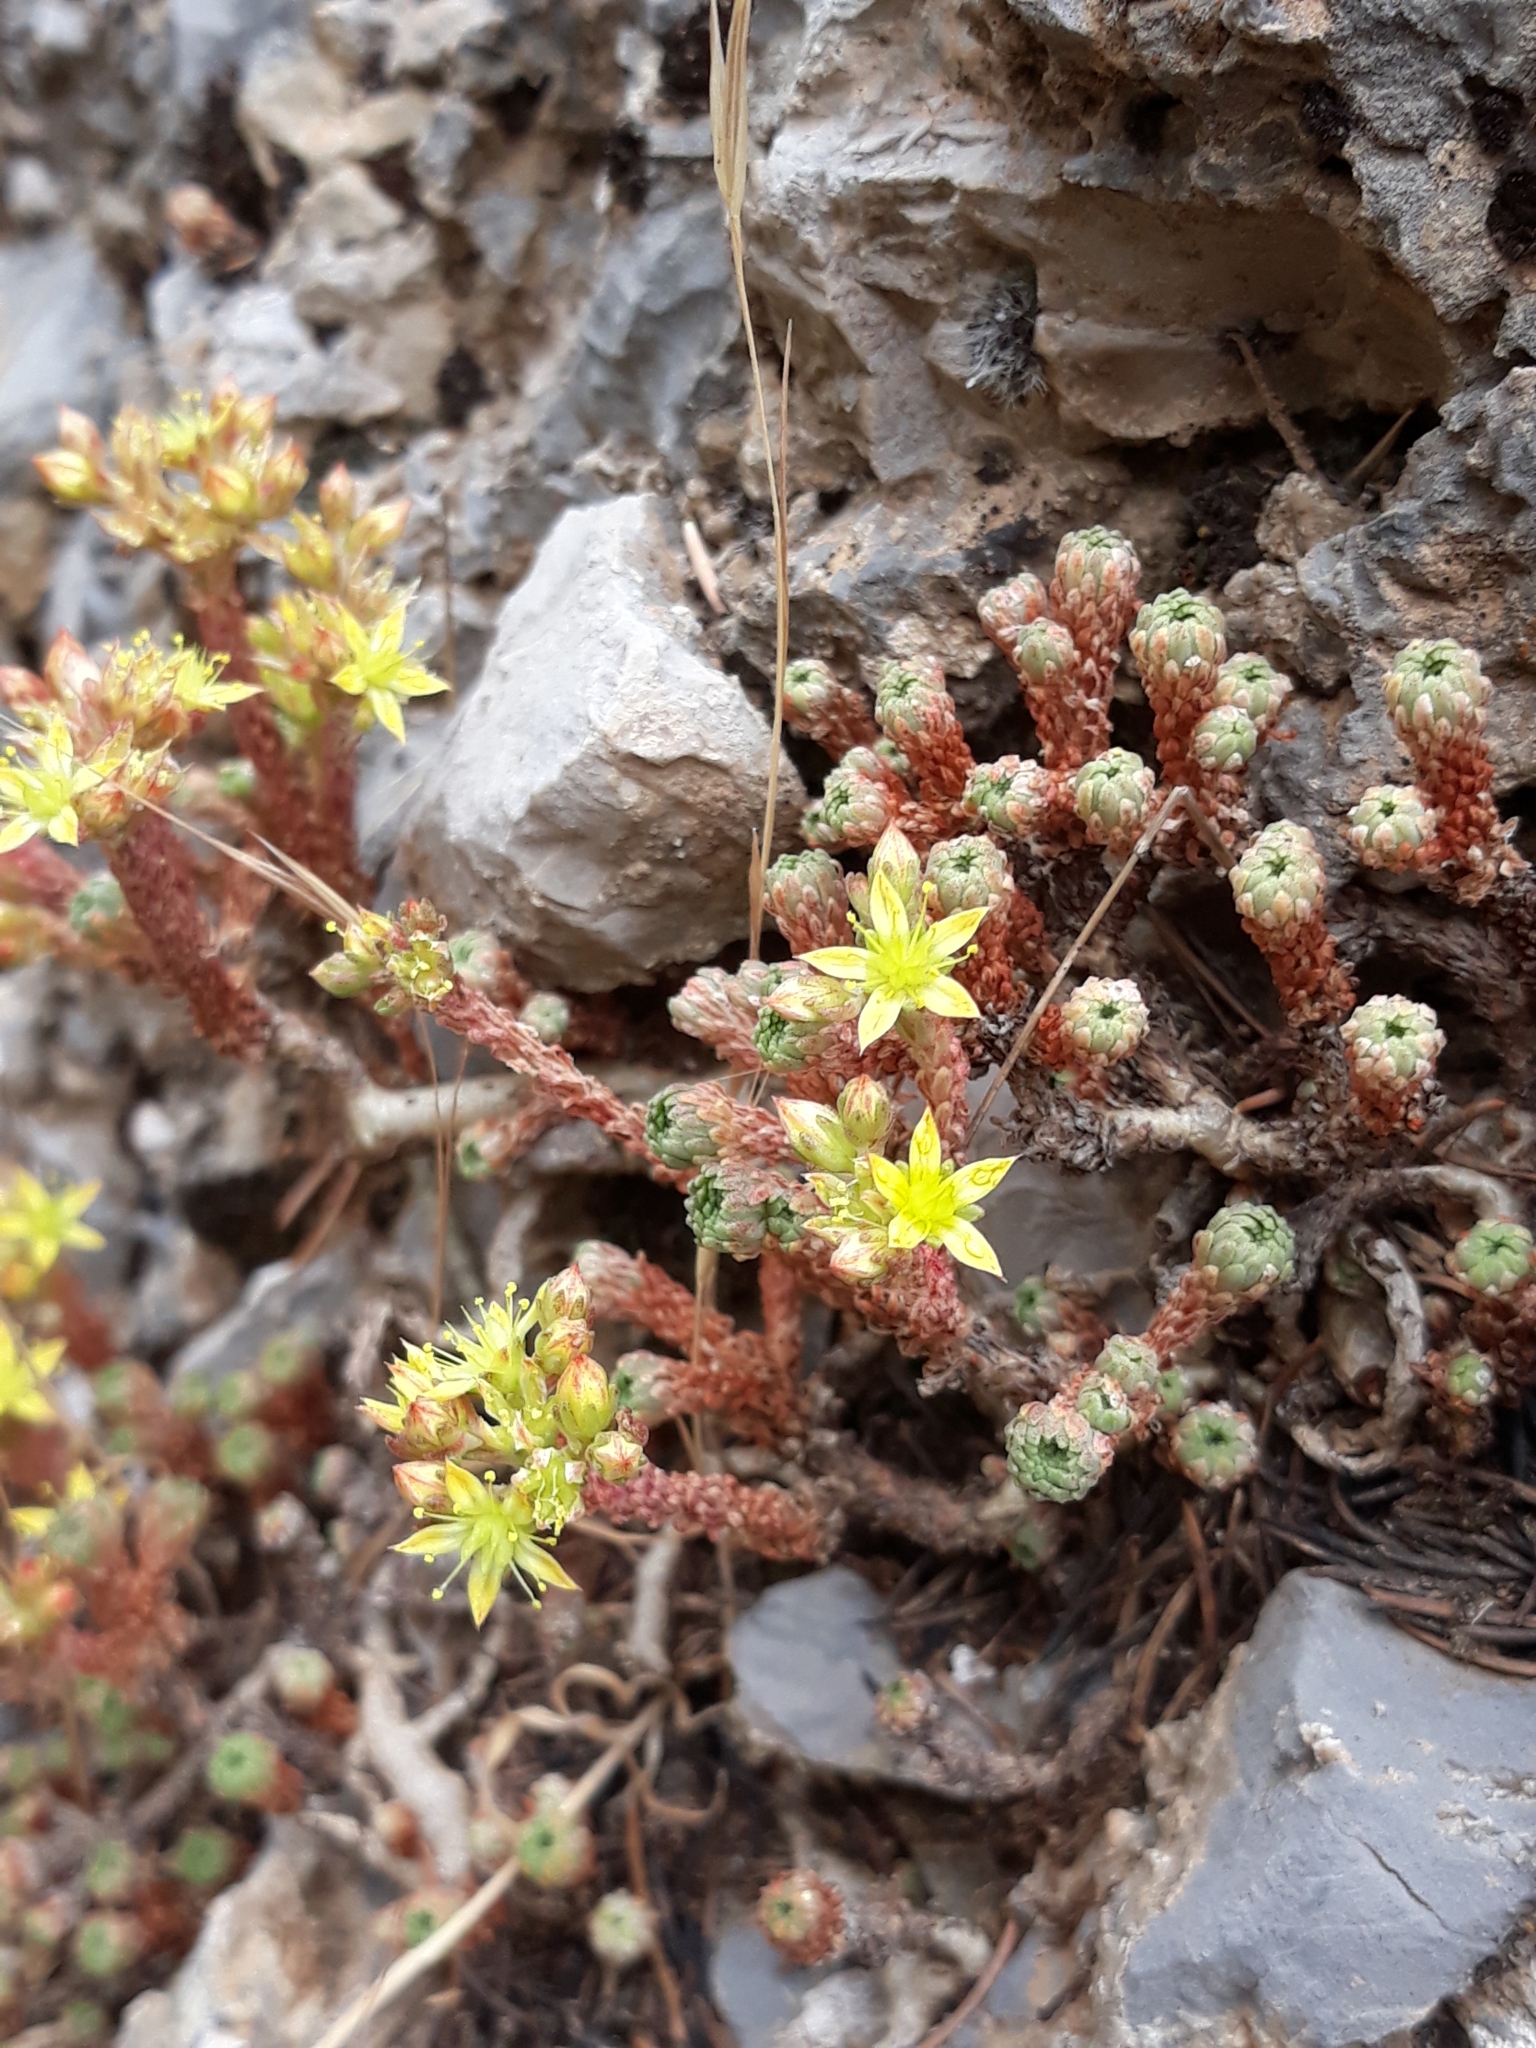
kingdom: Plantae
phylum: Tracheophyta
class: Magnoliopsida
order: Saxifragales
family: Crassulaceae
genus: Sedum
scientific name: Sedum multiceps
